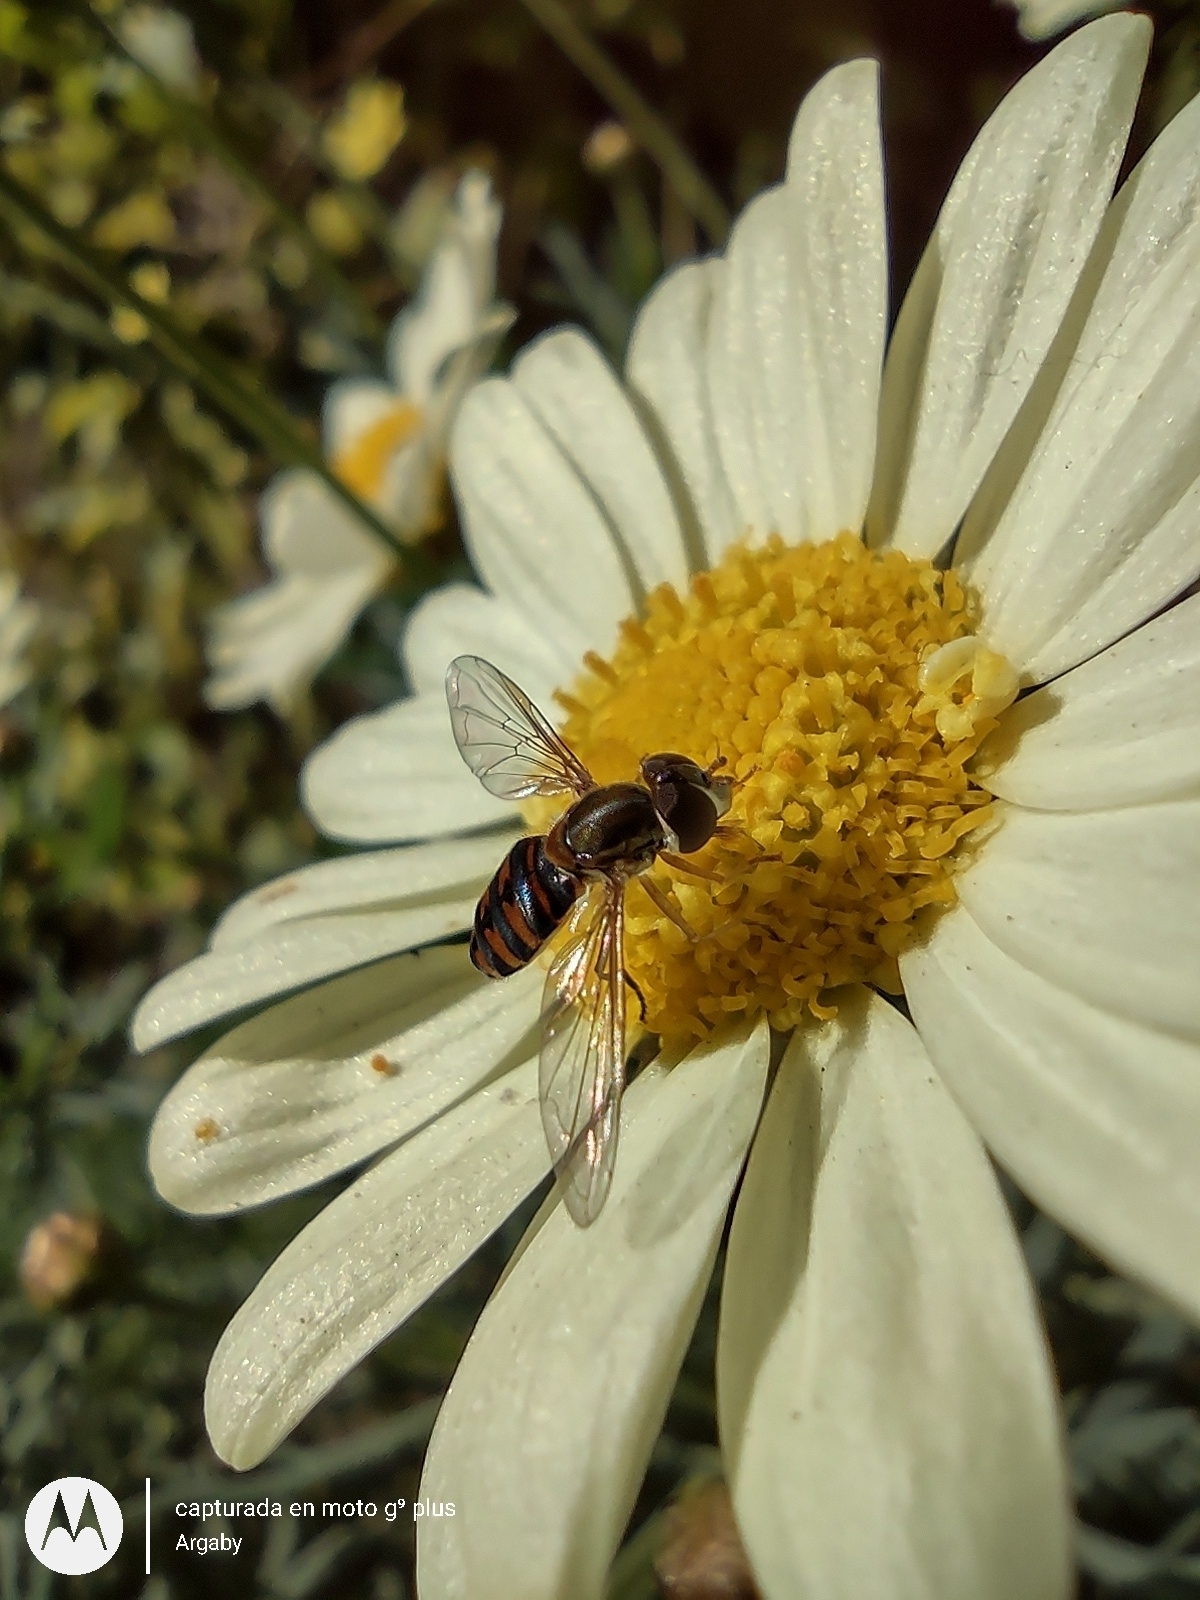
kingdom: Animalia
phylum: Arthropoda
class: Insecta
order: Diptera
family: Syrphidae
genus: Toxomerus
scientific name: Toxomerus
